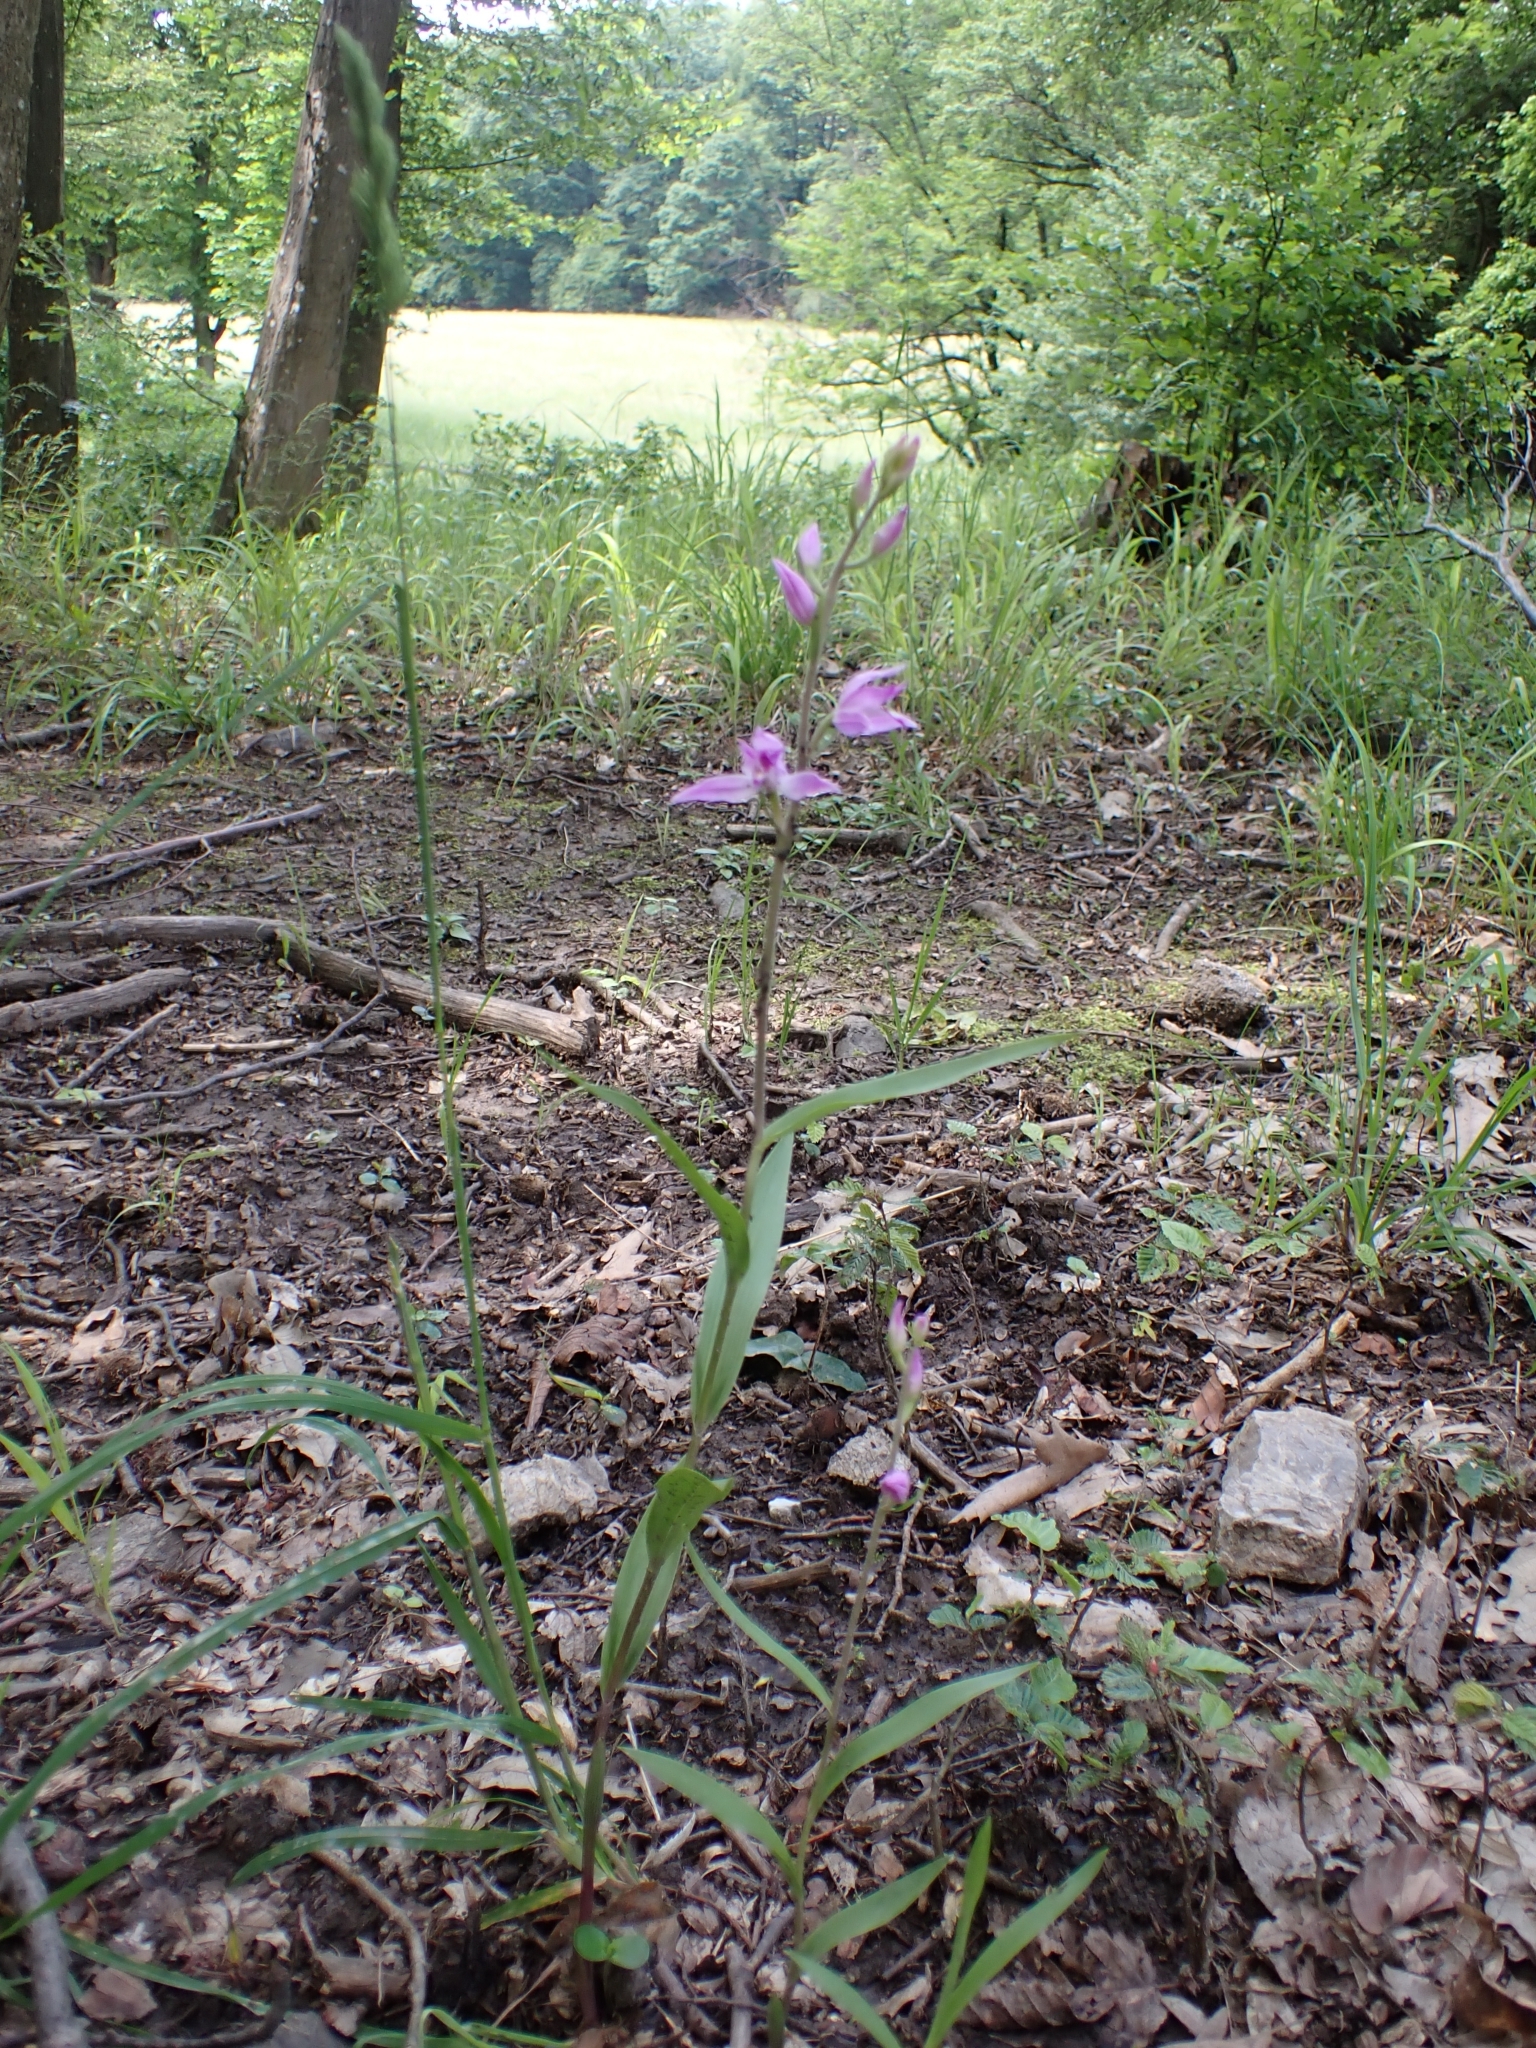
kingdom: Plantae
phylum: Tracheophyta
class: Liliopsida
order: Asparagales
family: Orchidaceae
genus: Cephalanthera
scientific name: Cephalanthera rubra
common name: Red helleborine
